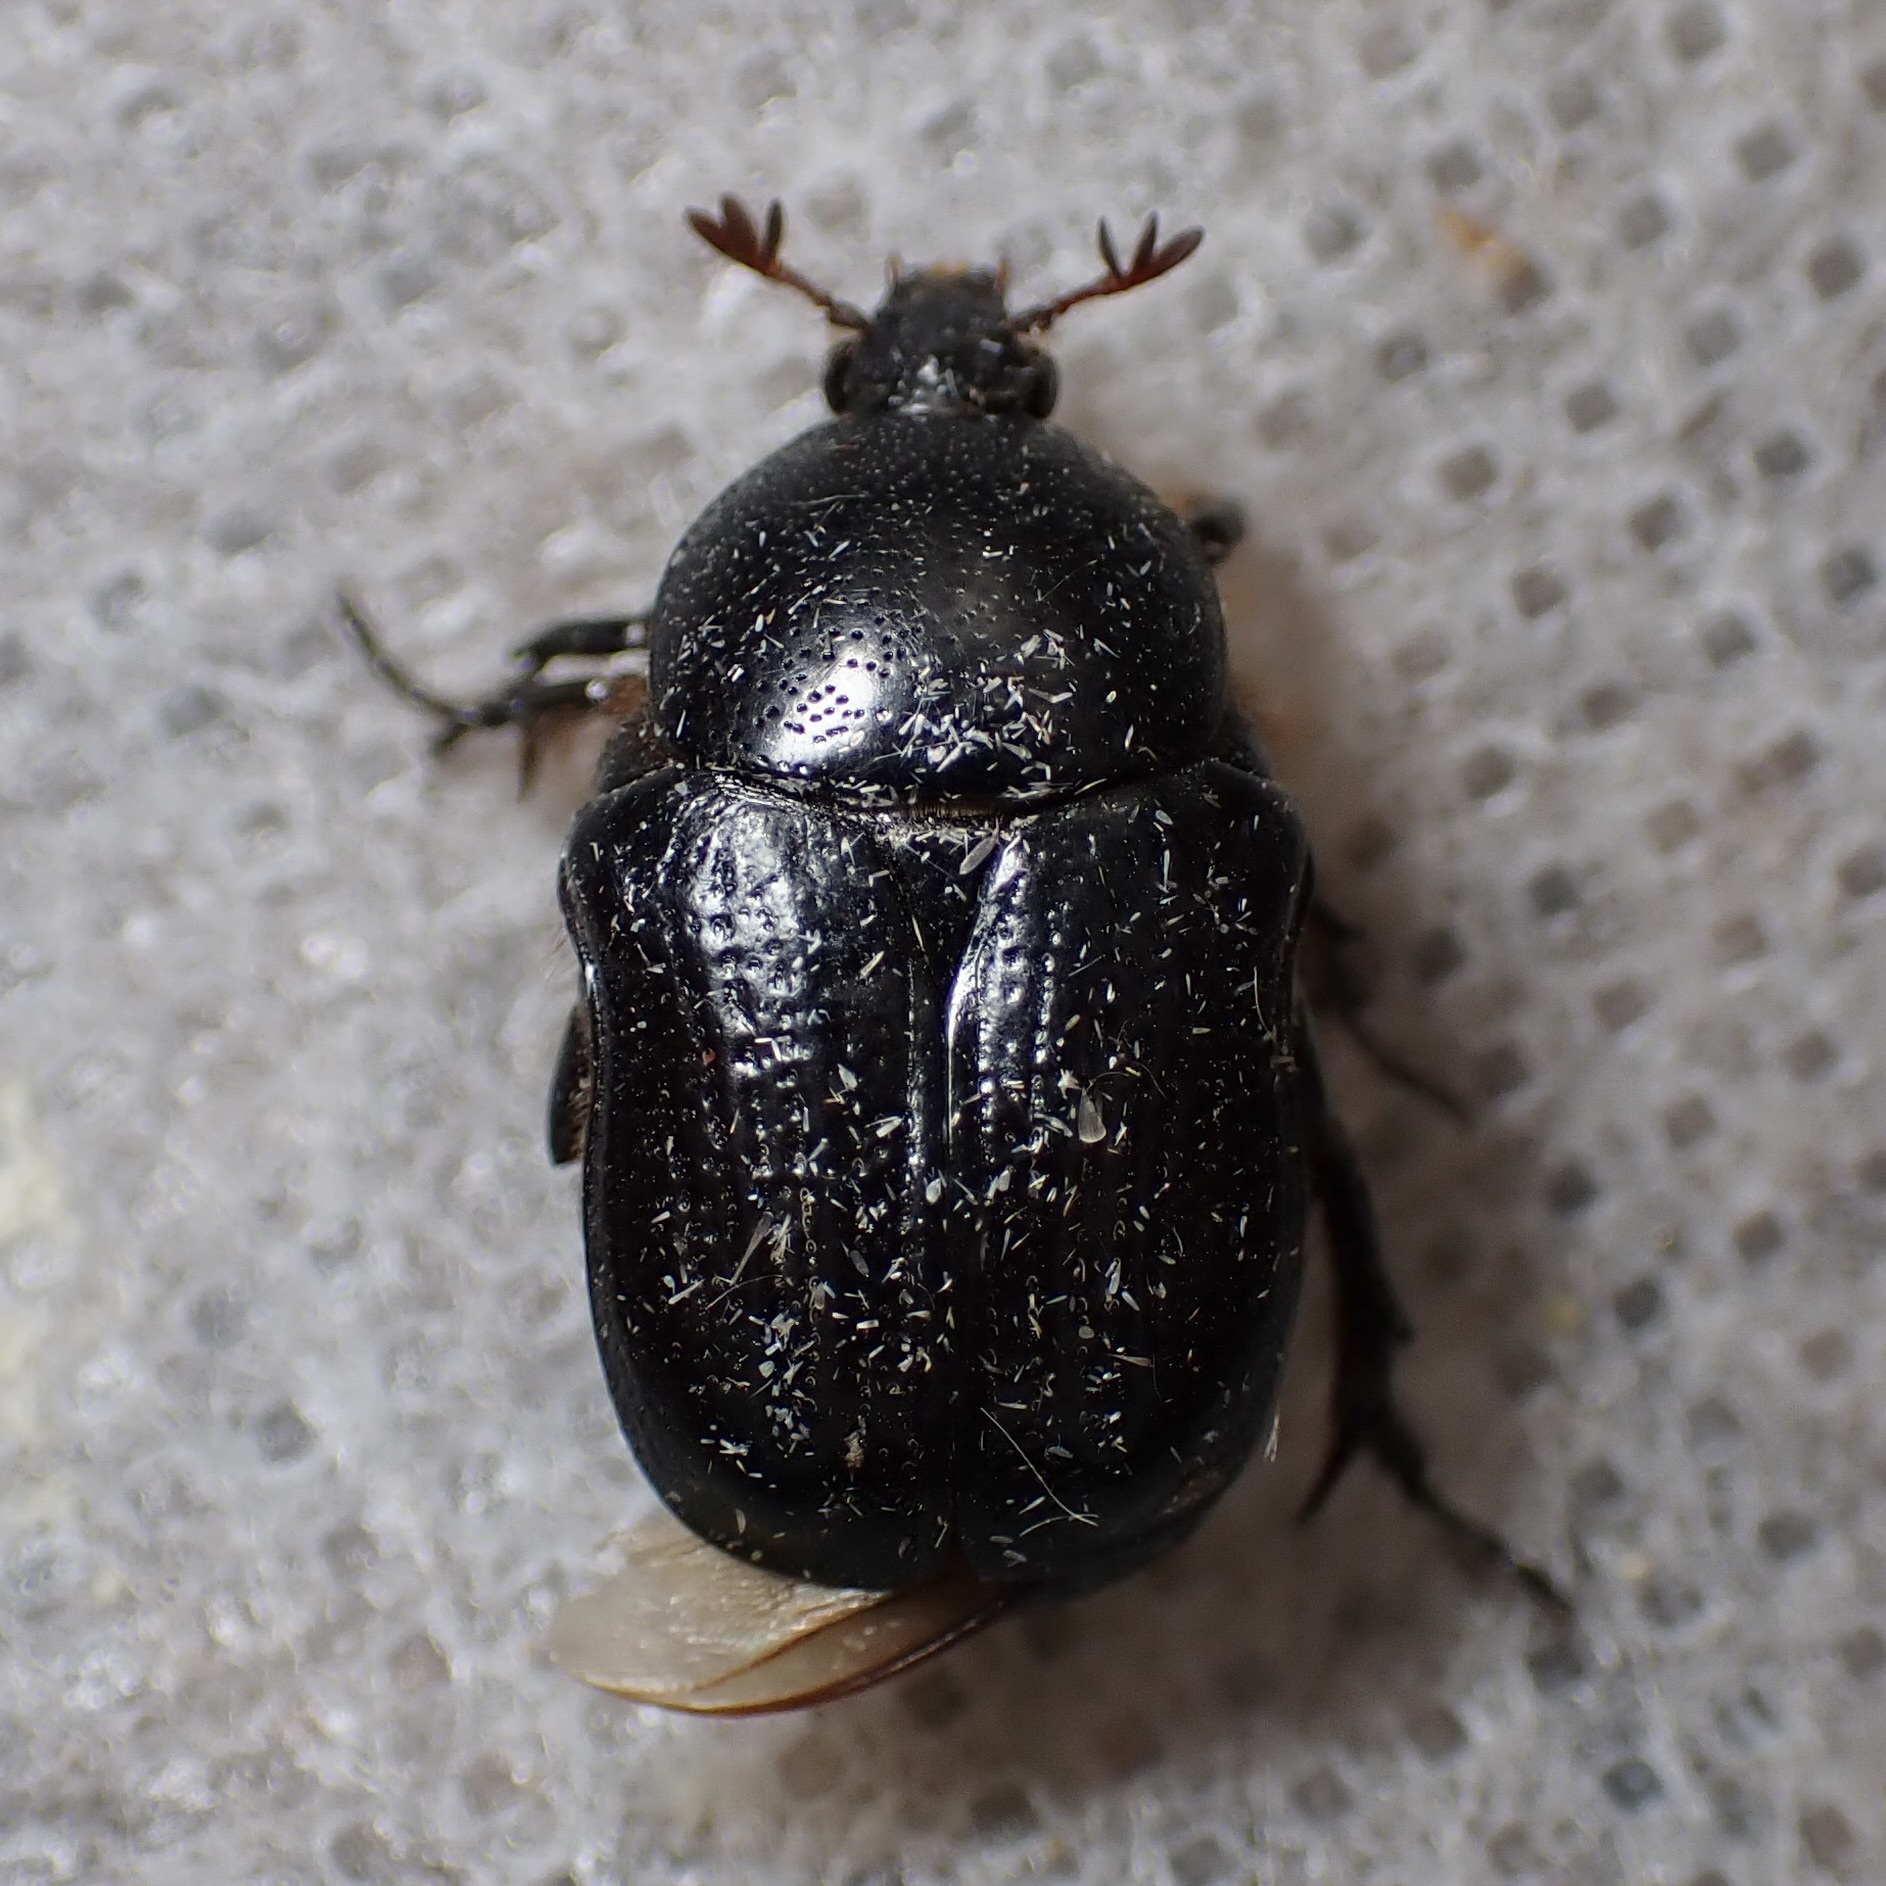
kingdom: Animalia
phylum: Arthropoda
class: Insecta
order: Coleoptera
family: Scarabaeidae
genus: Euphoria
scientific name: Euphoria verticalis
